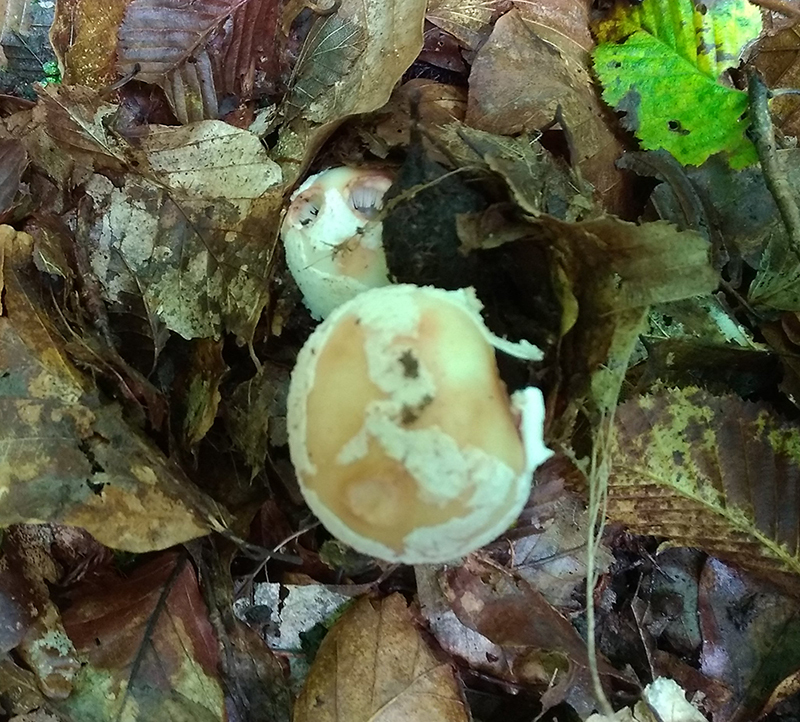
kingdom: Fungi
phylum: Basidiomycota
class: Agaricomycetes
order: Agaricales
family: Amanitaceae
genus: Amanita
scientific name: Amanita rubescens
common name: Blusher
